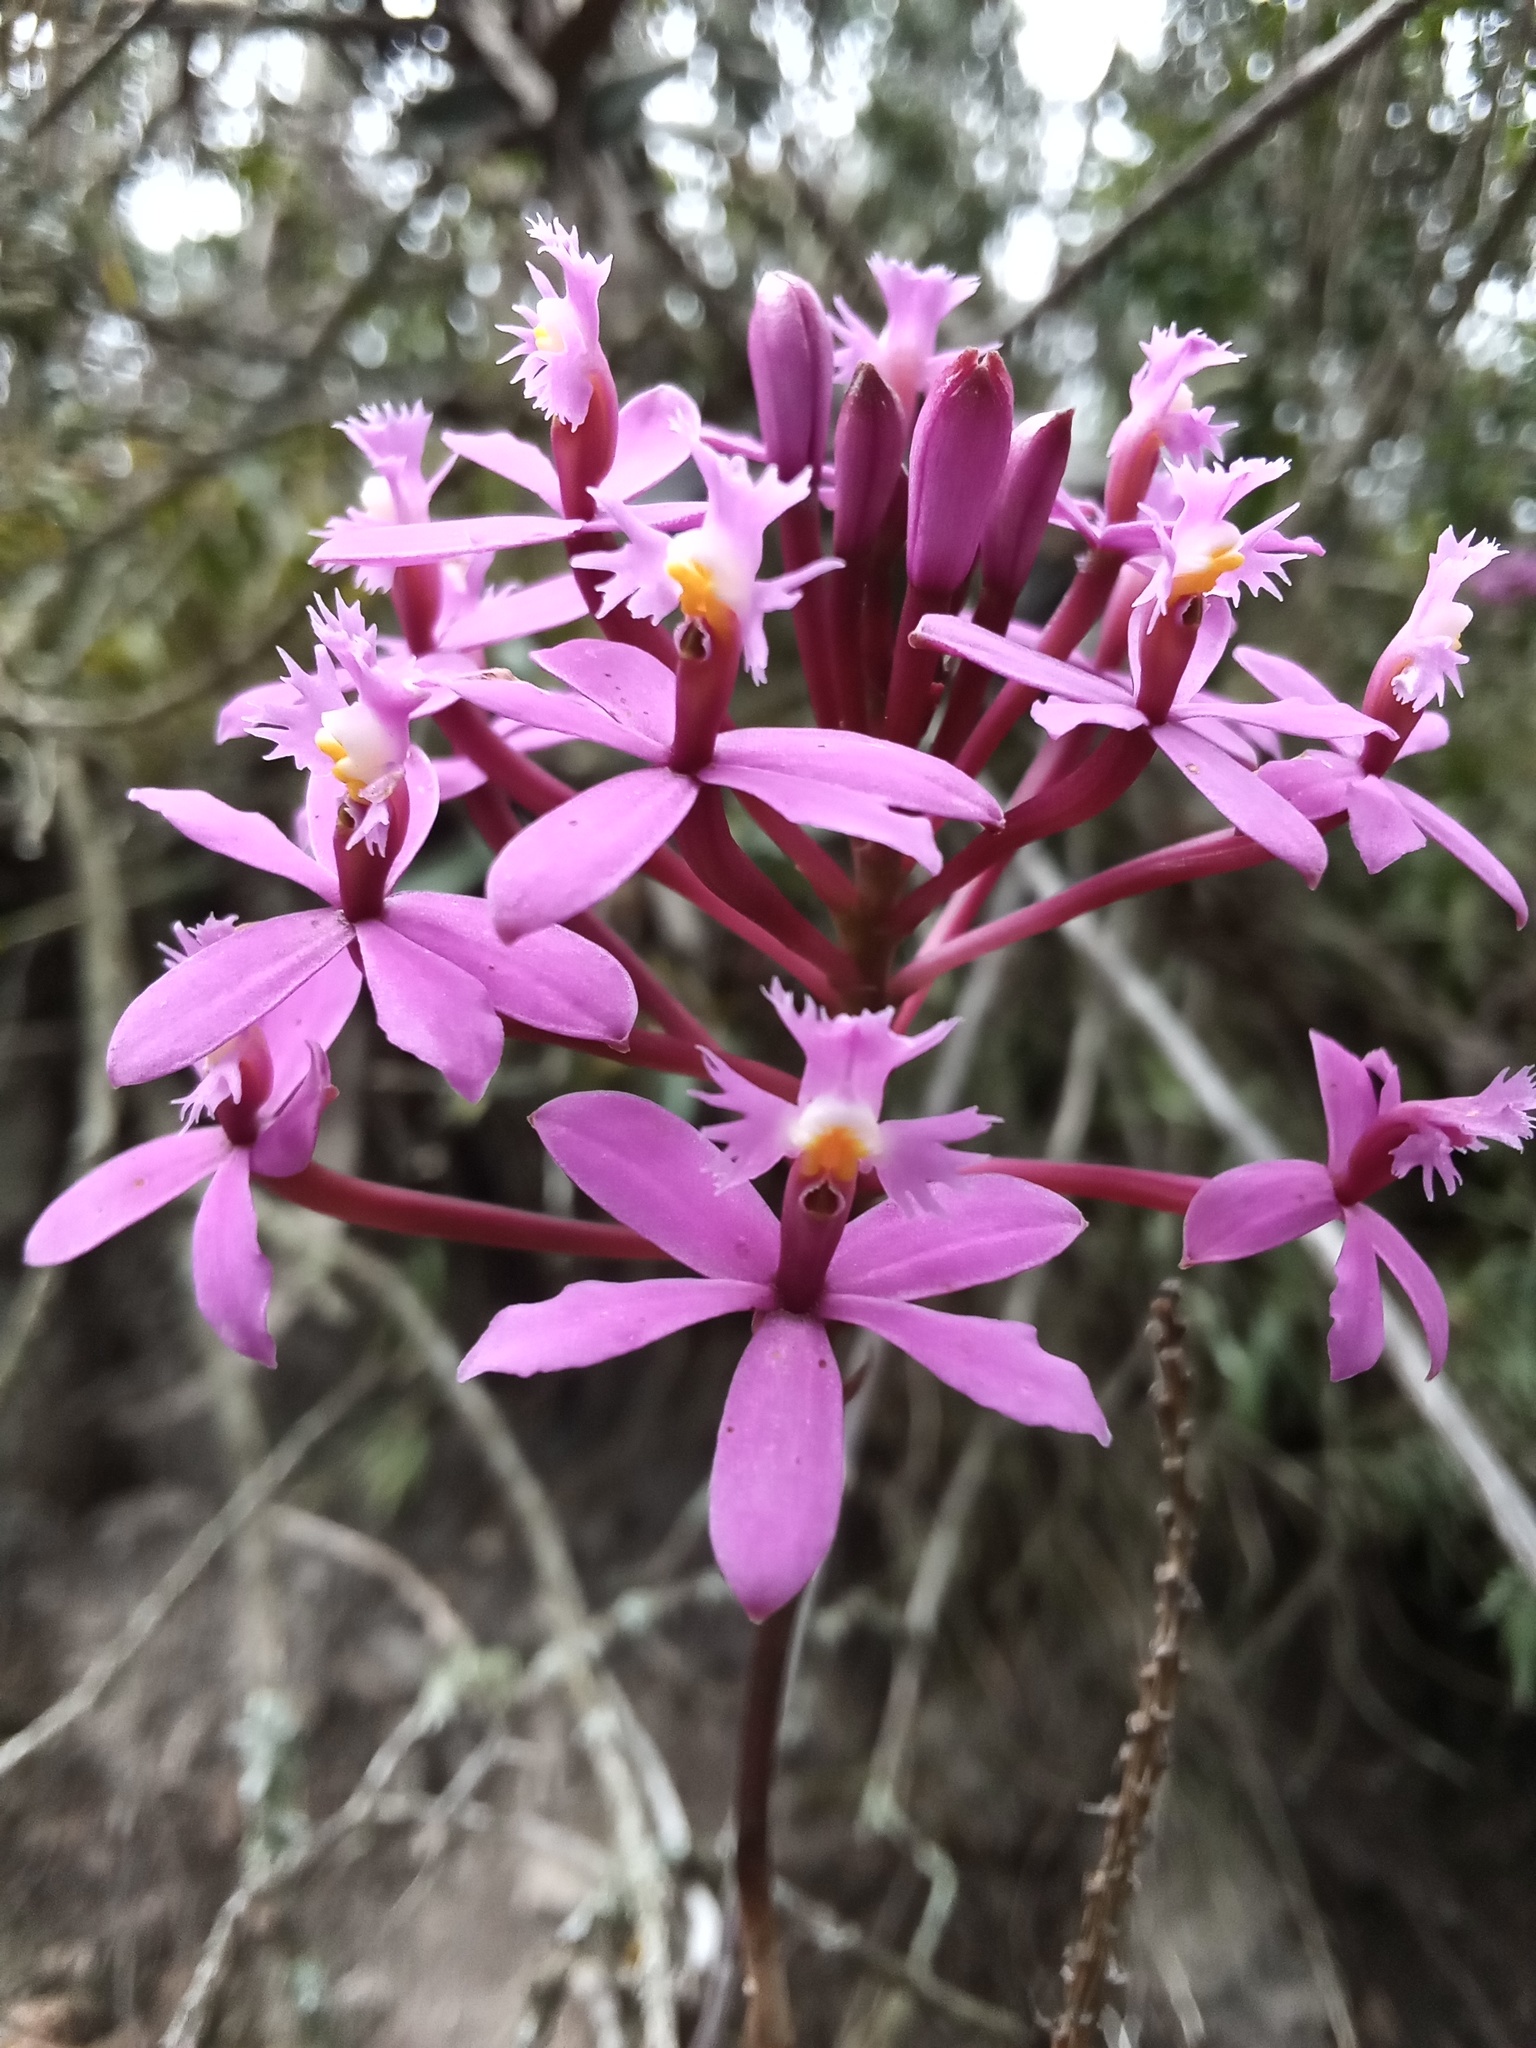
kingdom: Plantae
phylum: Tracheophyta
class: Liliopsida
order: Asparagales
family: Orchidaceae
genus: Epidendrum
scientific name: Epidendrum arachnoglossum
